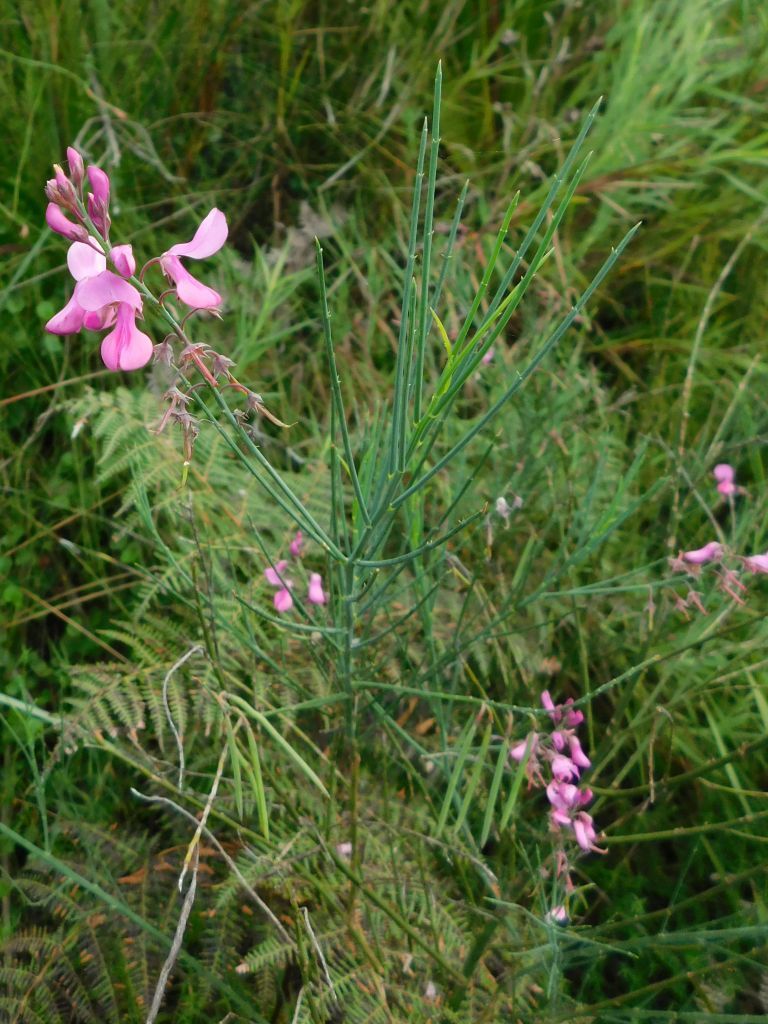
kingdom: Plantae
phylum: Tracheophyta
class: Magnoliopsida
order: Fabales
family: Fabaceae
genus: Indigofera
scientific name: Indigofera filifolia
